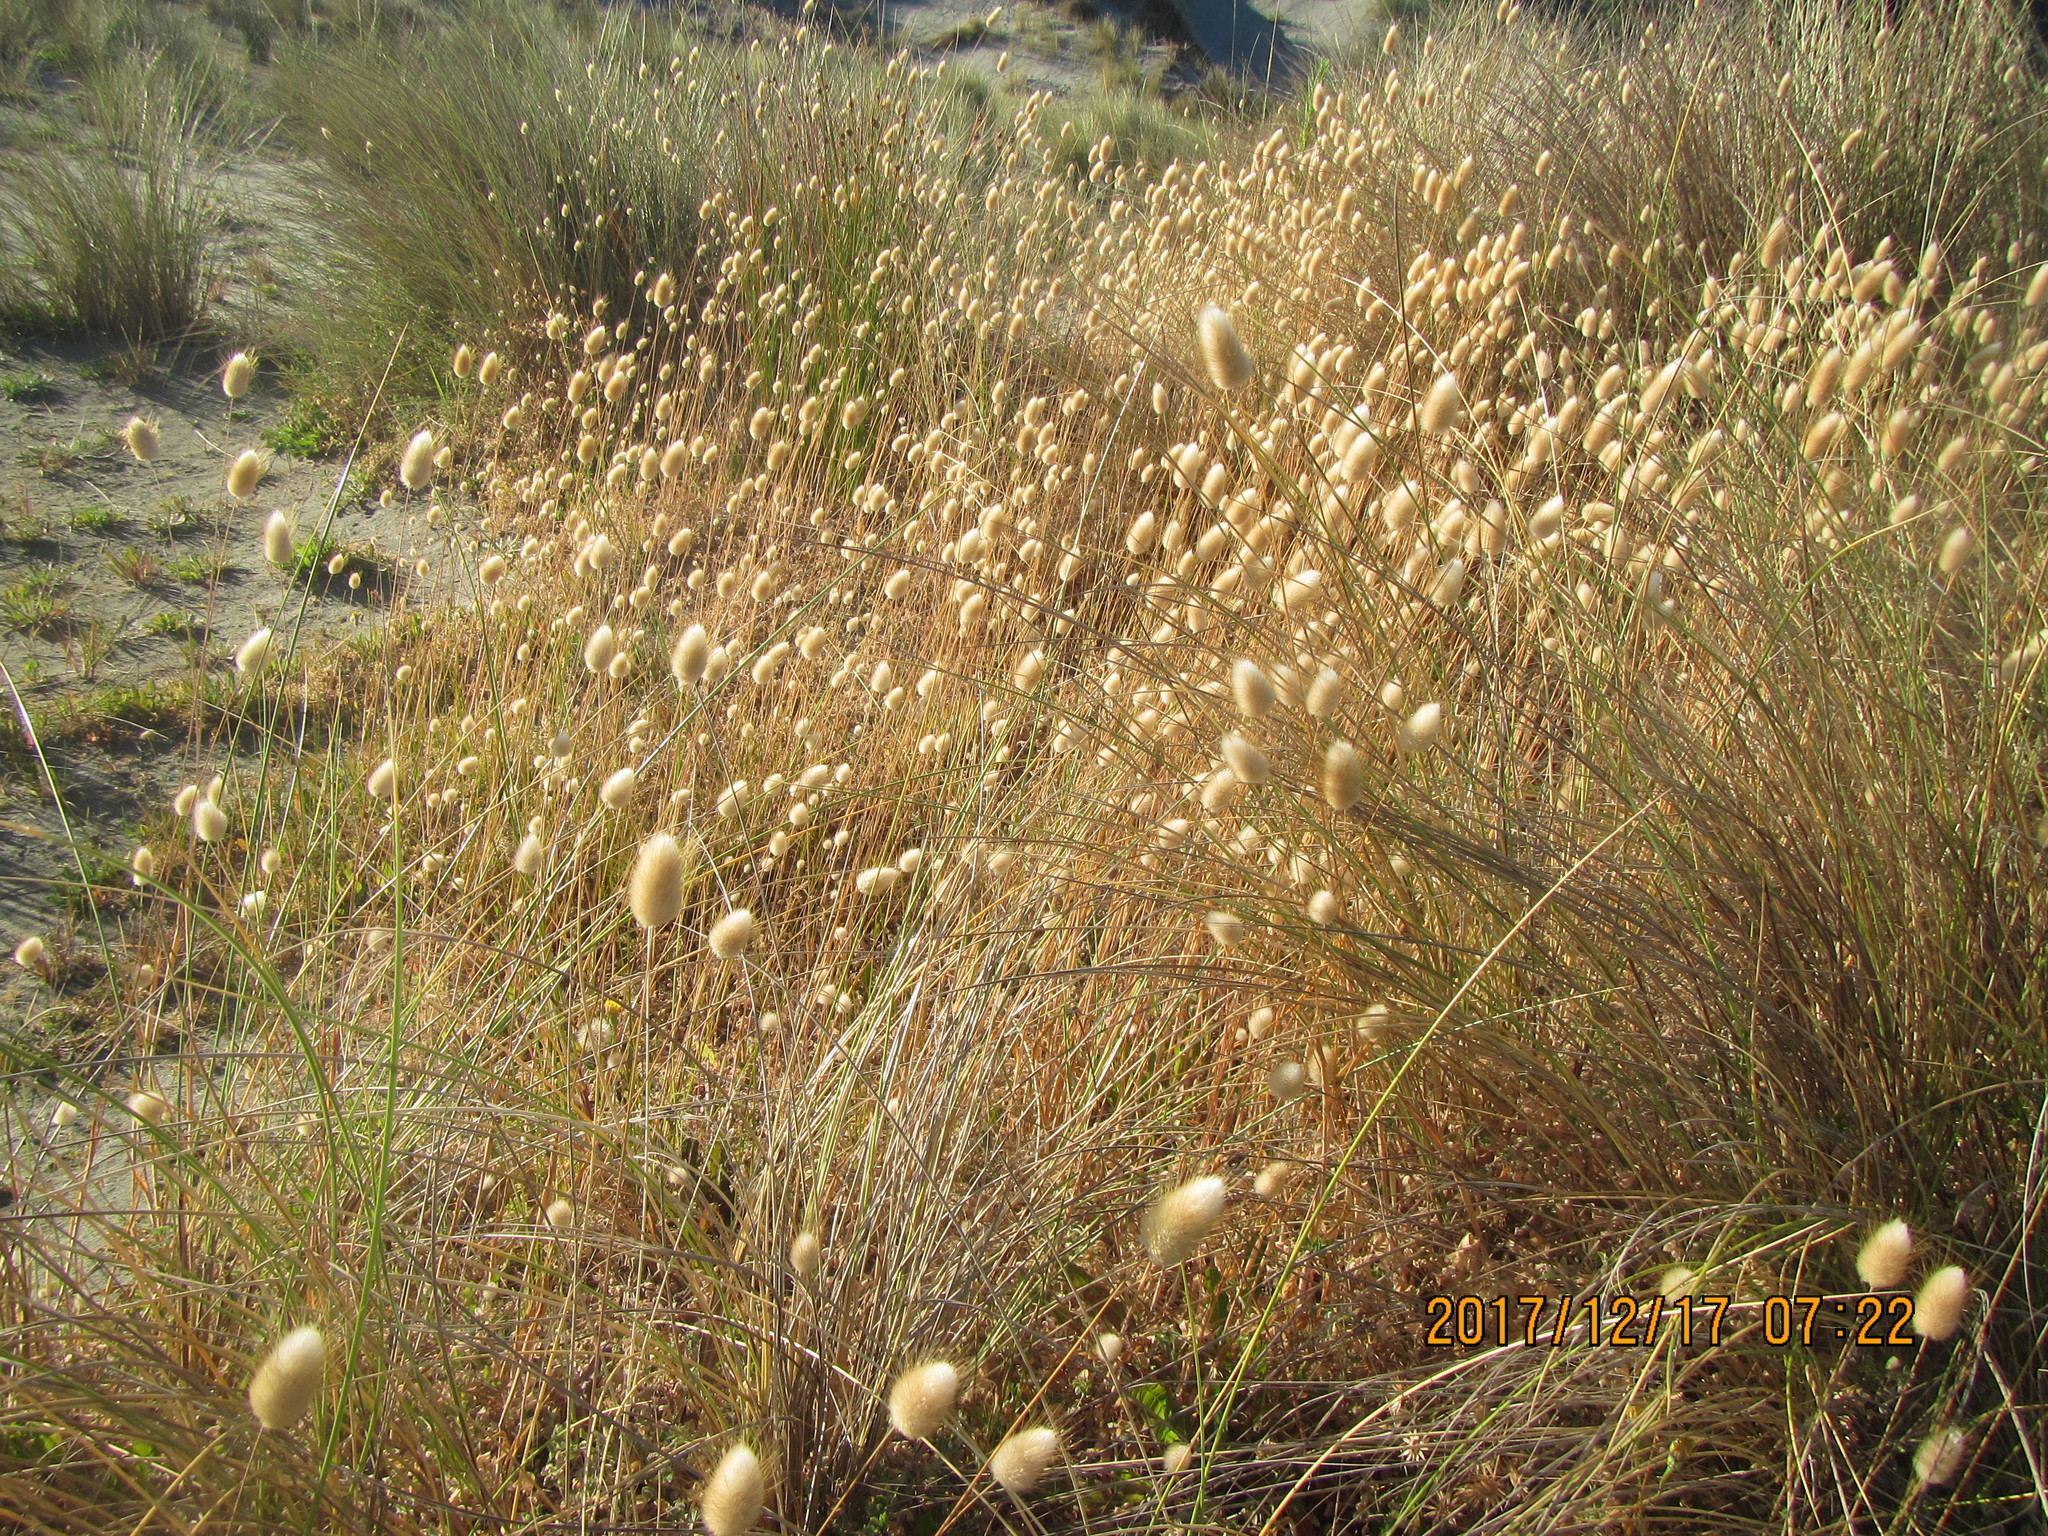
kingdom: Plantae
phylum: Tracheophyta
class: Liliopsida
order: Poales
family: Poaceae
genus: Lagurus
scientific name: Lagurus ovatus
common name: Hare's-tail
